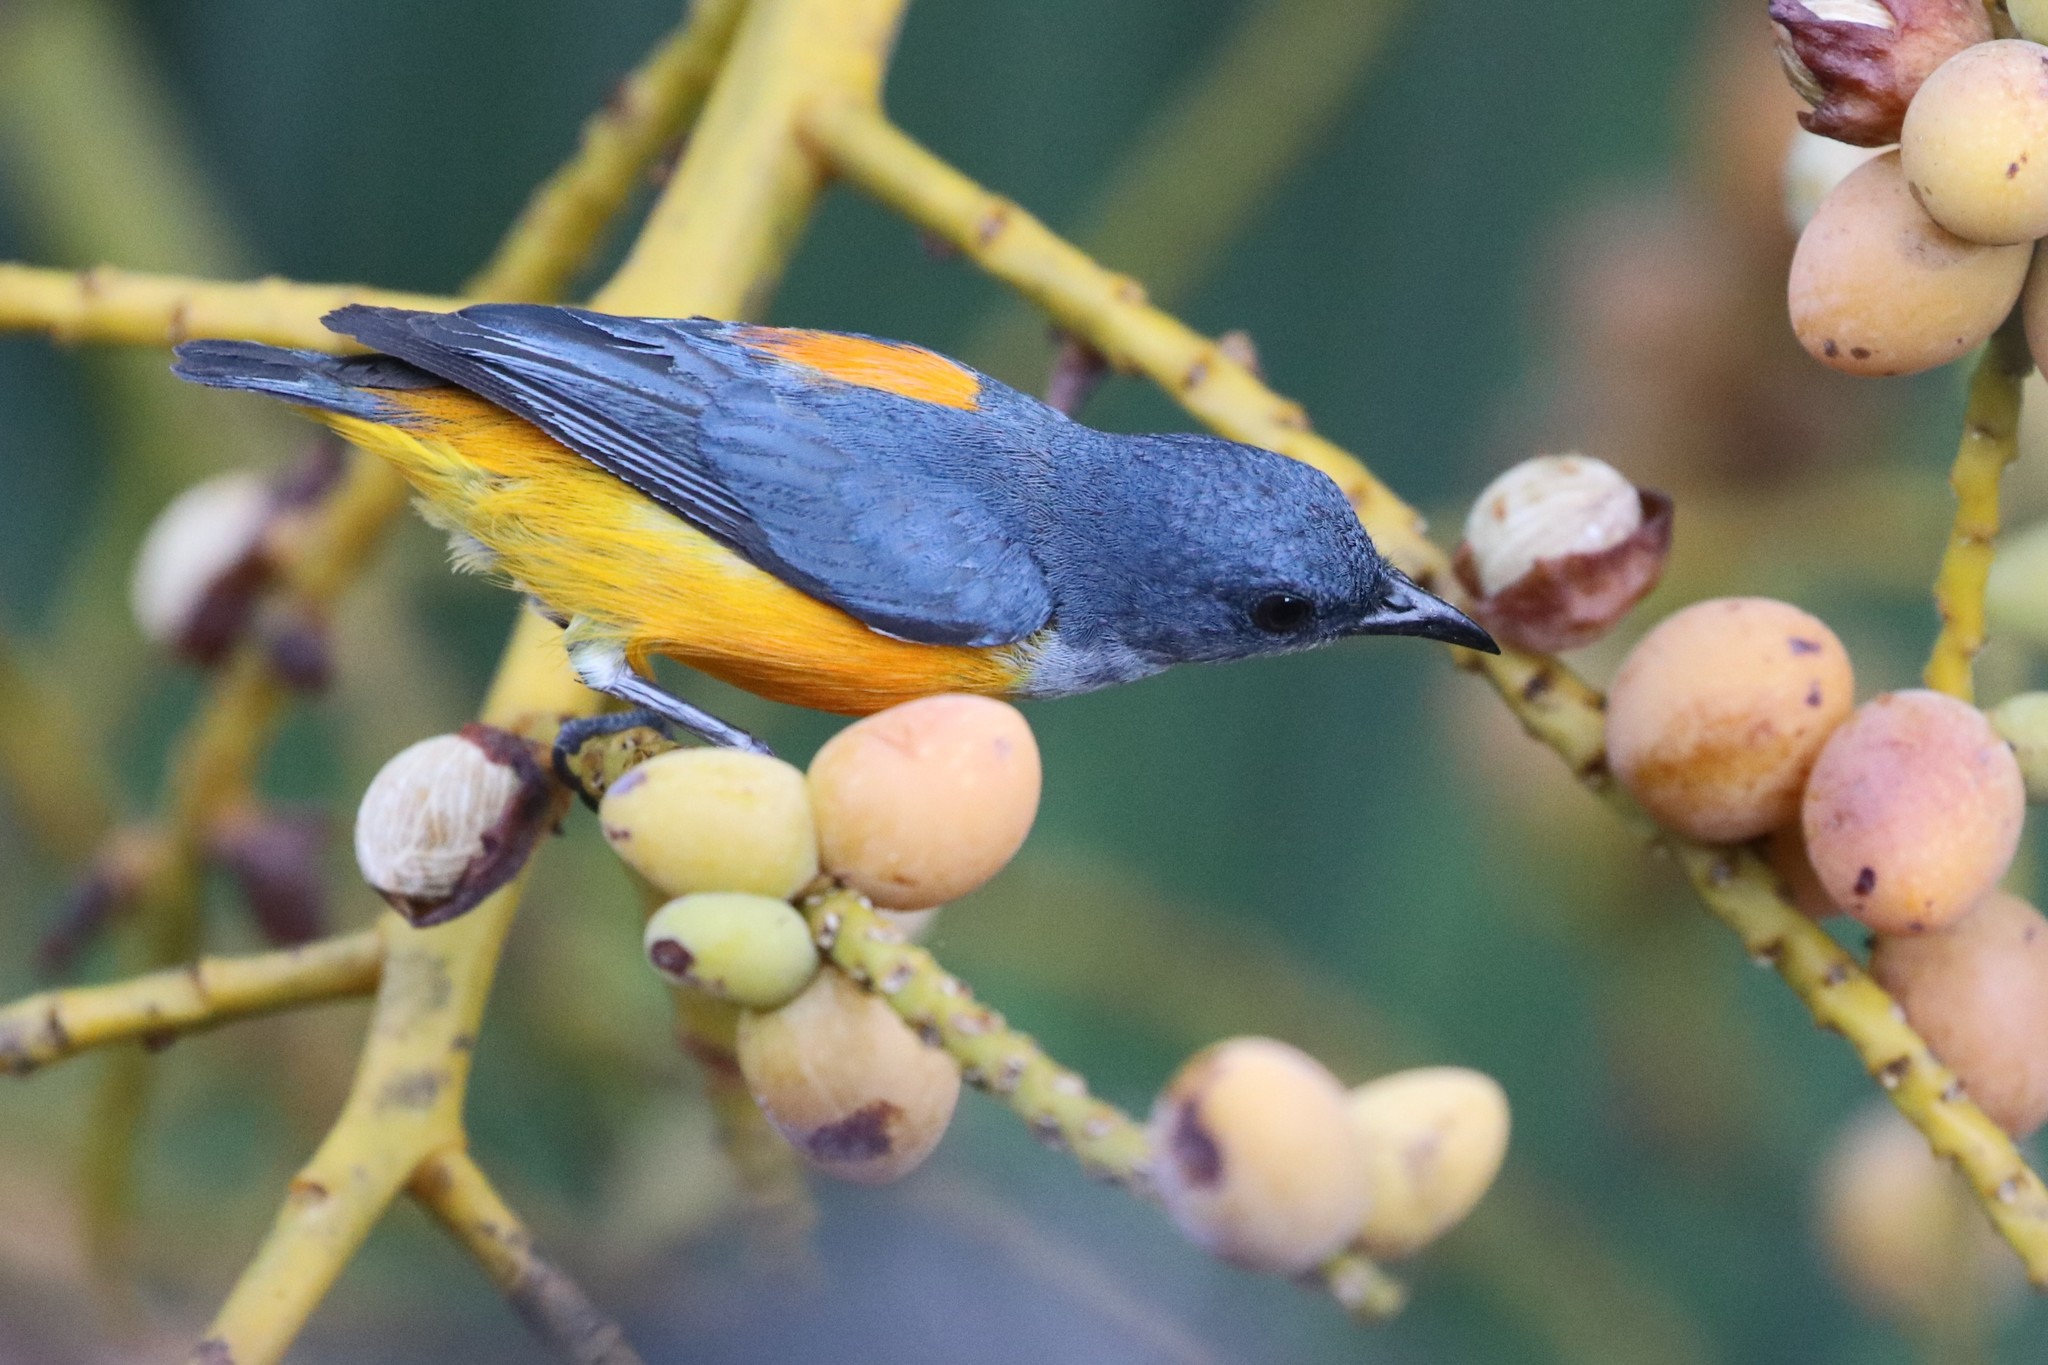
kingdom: Animalia
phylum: Chordata
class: Aves
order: Passeriformes
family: Dicaeidae
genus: Dicaeum
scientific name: Dicaeum trigonostigma
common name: Orange-bellied flowerpecker
